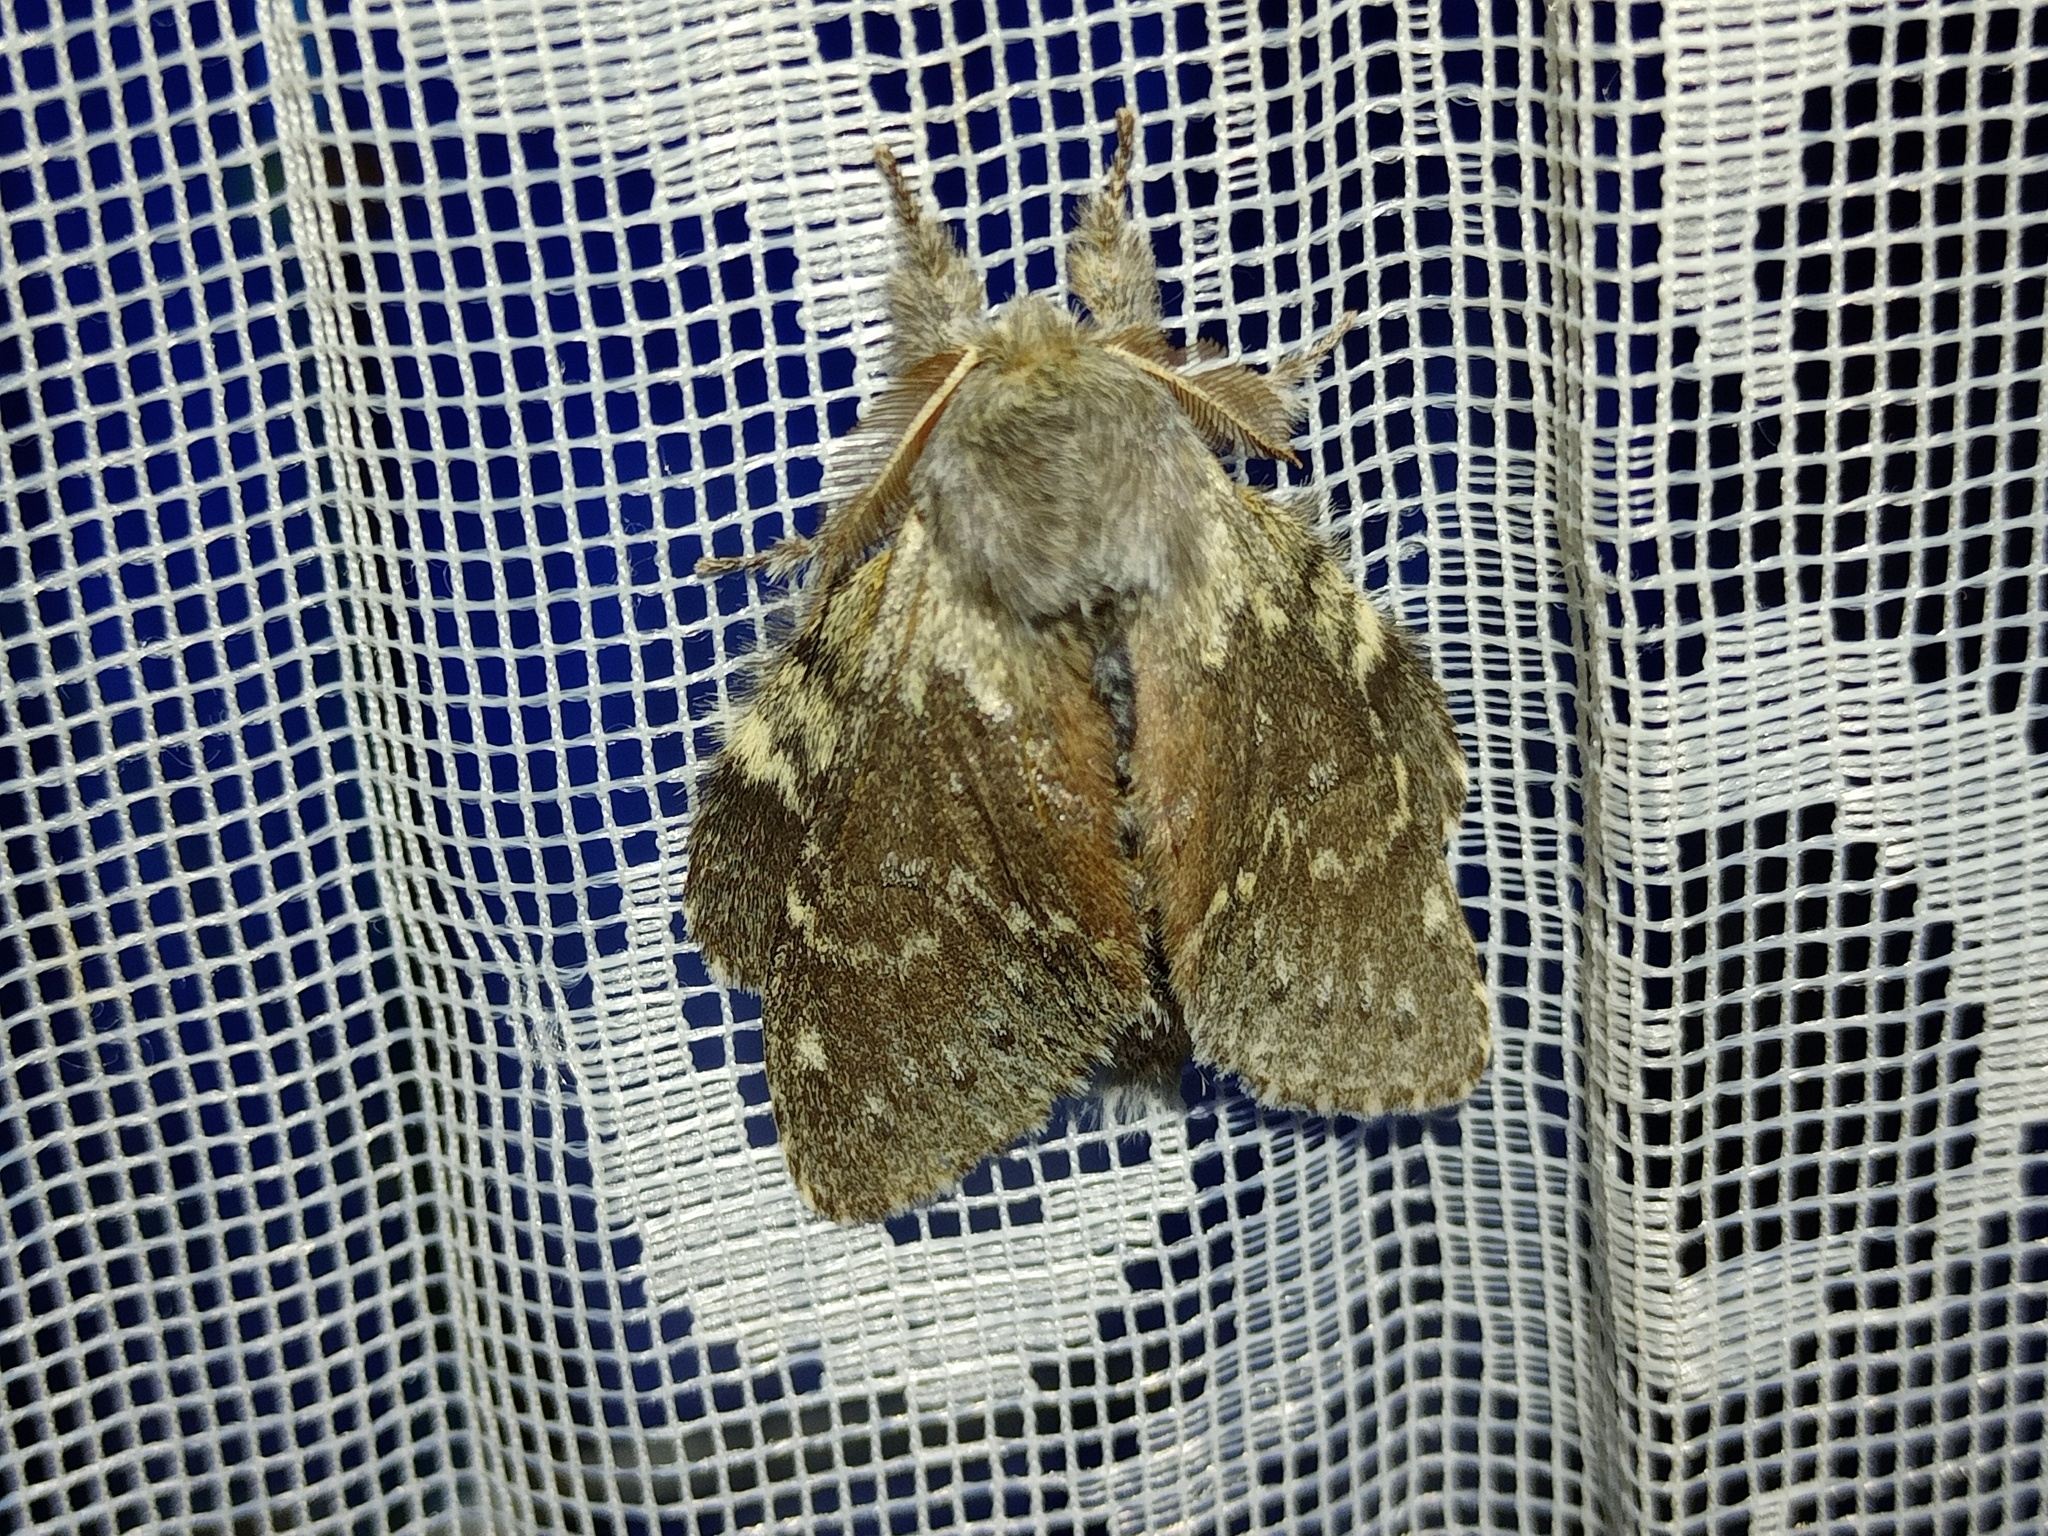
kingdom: Animalia
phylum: Arthropoda
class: Insecta
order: Lepidoptera
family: Notodontidae
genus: Stauropus
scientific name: Stauropus fagi
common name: Lobster moth
